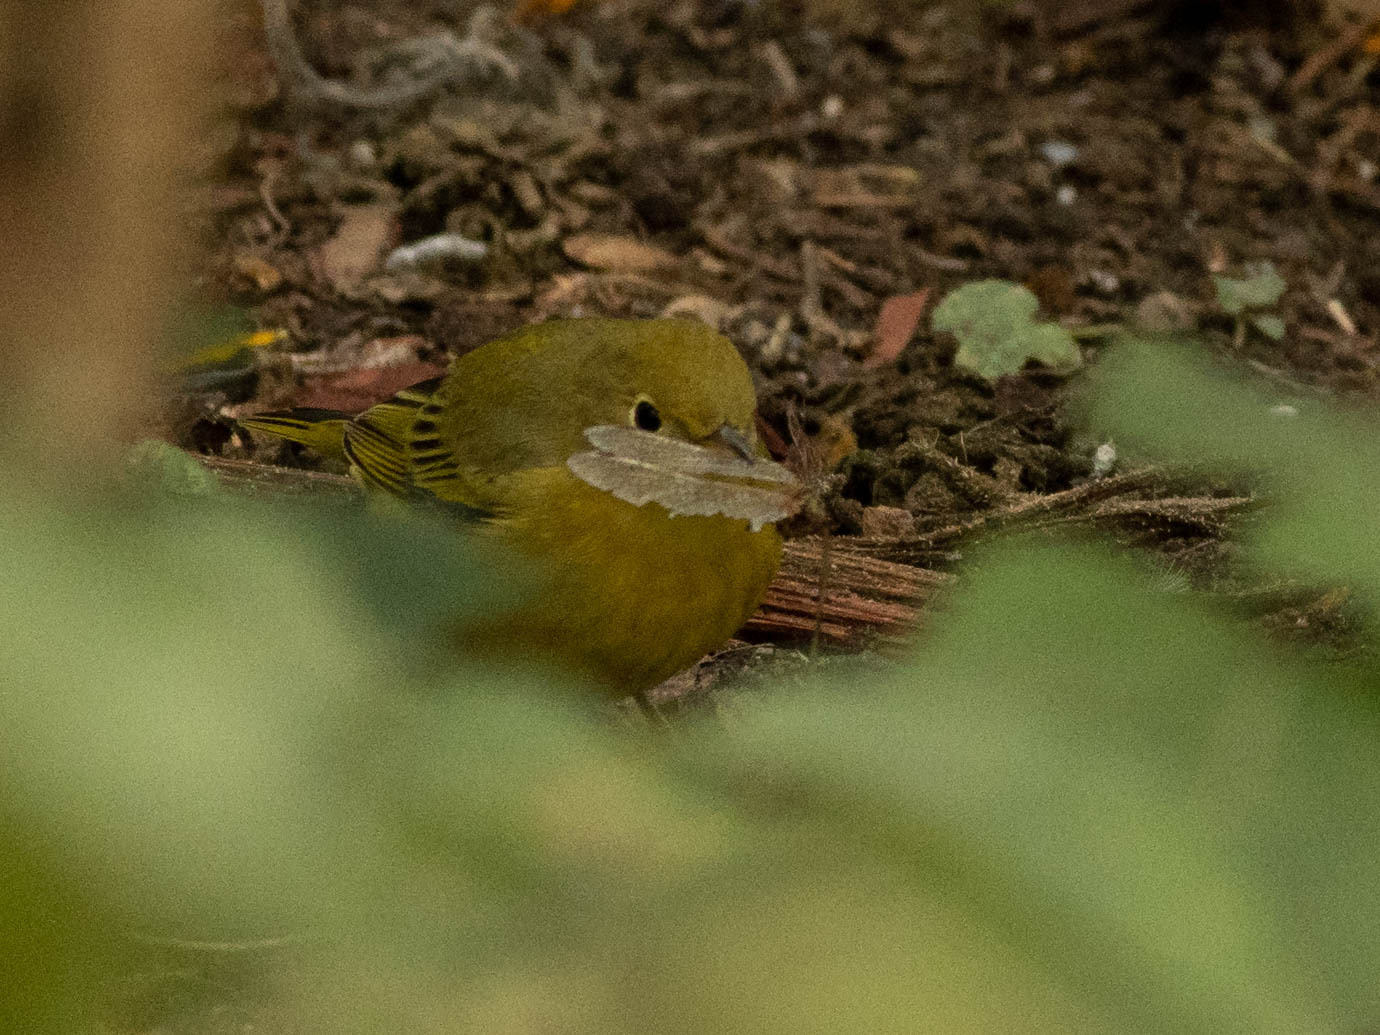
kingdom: Animalia
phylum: Chordata
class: Aves
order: Passeriformes
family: Parulidae
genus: Setophaga
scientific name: Setophaga petechia
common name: Yellow warbler
